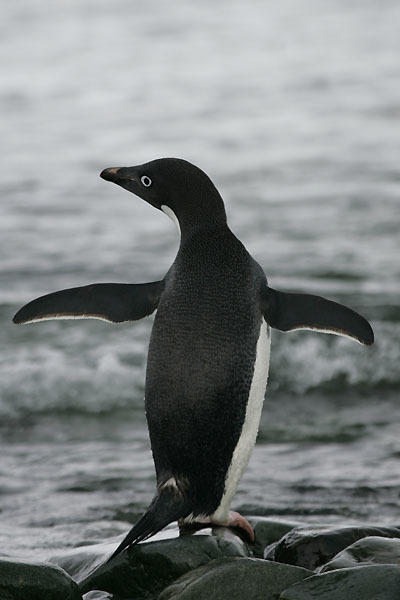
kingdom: Animalia
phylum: Chordata
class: Aves
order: Sphenisciformes
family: Spheniscidae
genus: Pygoscelis
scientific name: Pygoscelis adeliae
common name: Adelie penguin
